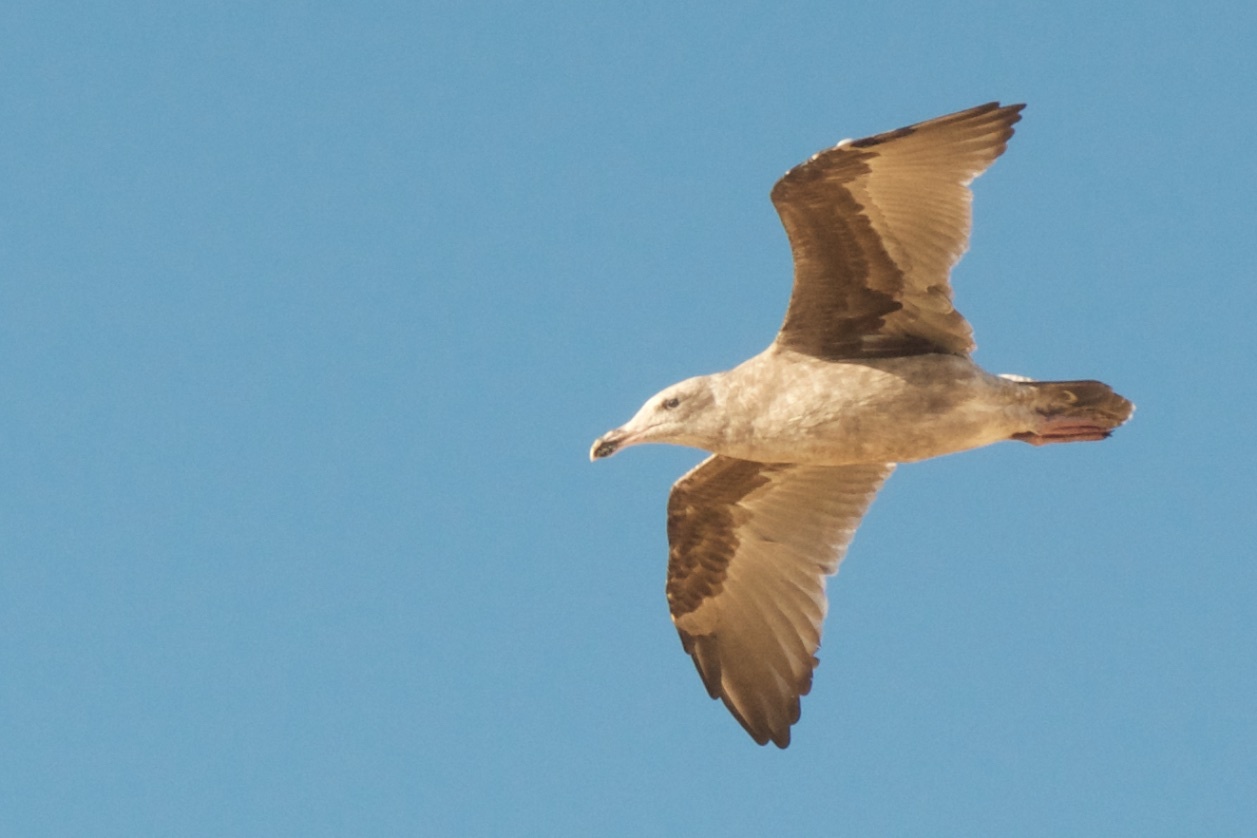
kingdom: Animalia
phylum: Chordata
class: Aves
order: Charadriiformes
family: Laridae
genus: Larus
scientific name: Larus occidentalis
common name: Western gull
